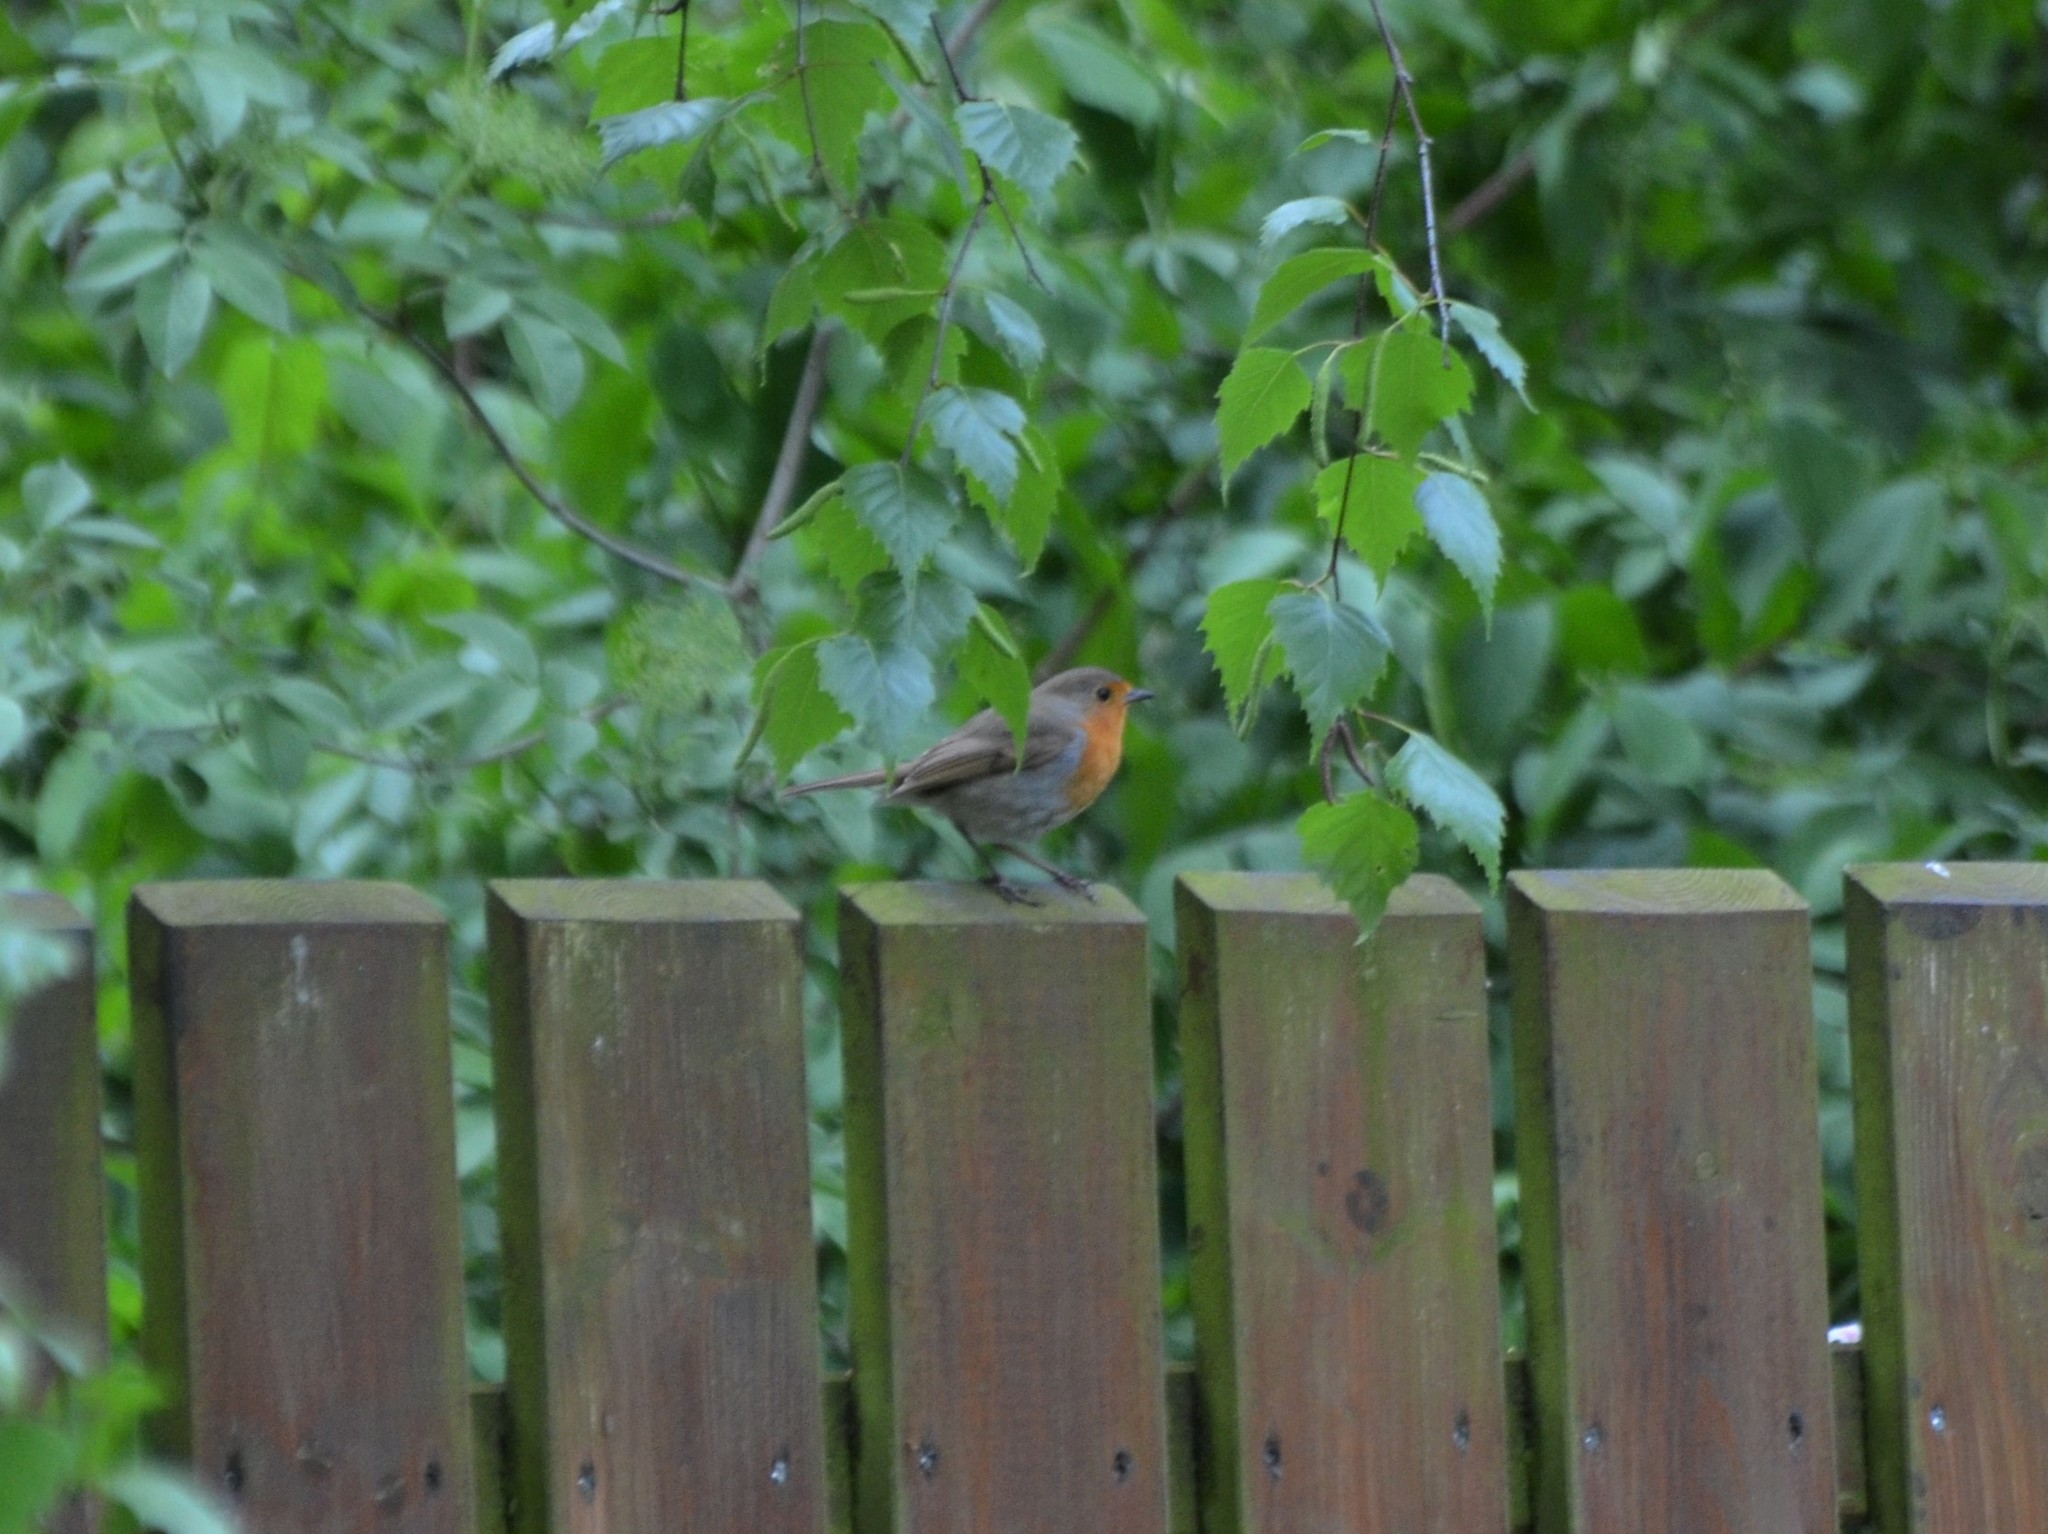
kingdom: Animalia
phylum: Chordata
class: Aves
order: Passeriformes
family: Muscicapidae
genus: Erithacus
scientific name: Erithacus rubecula
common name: European robin
